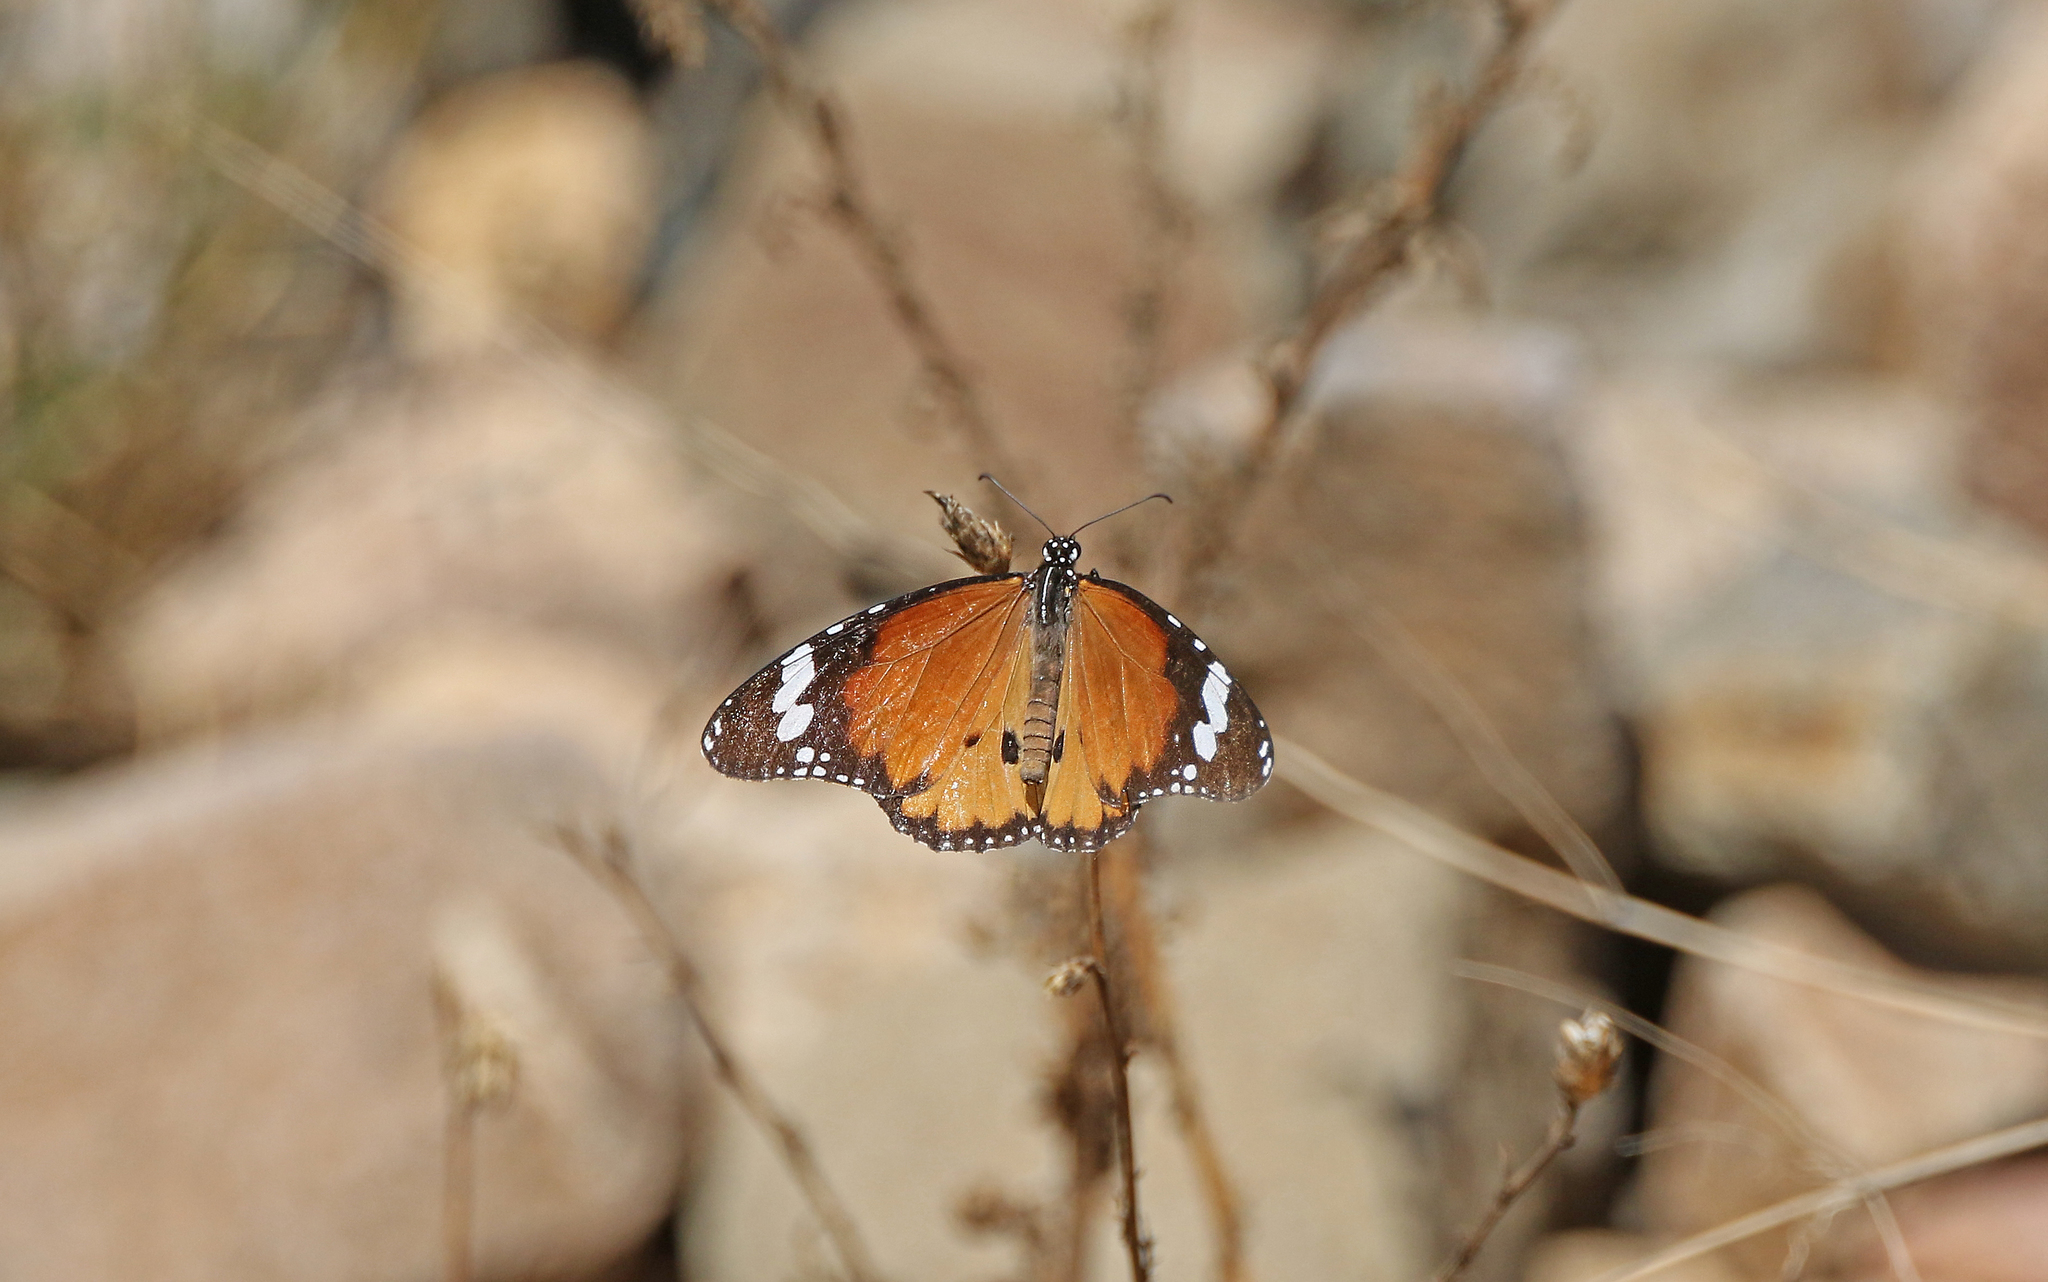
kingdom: Animalia
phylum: Arthropoda
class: Insecta
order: Lepidoptera
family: Nymphalidae
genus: Danaus
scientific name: Danaus chrysippus
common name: Plain tiger
